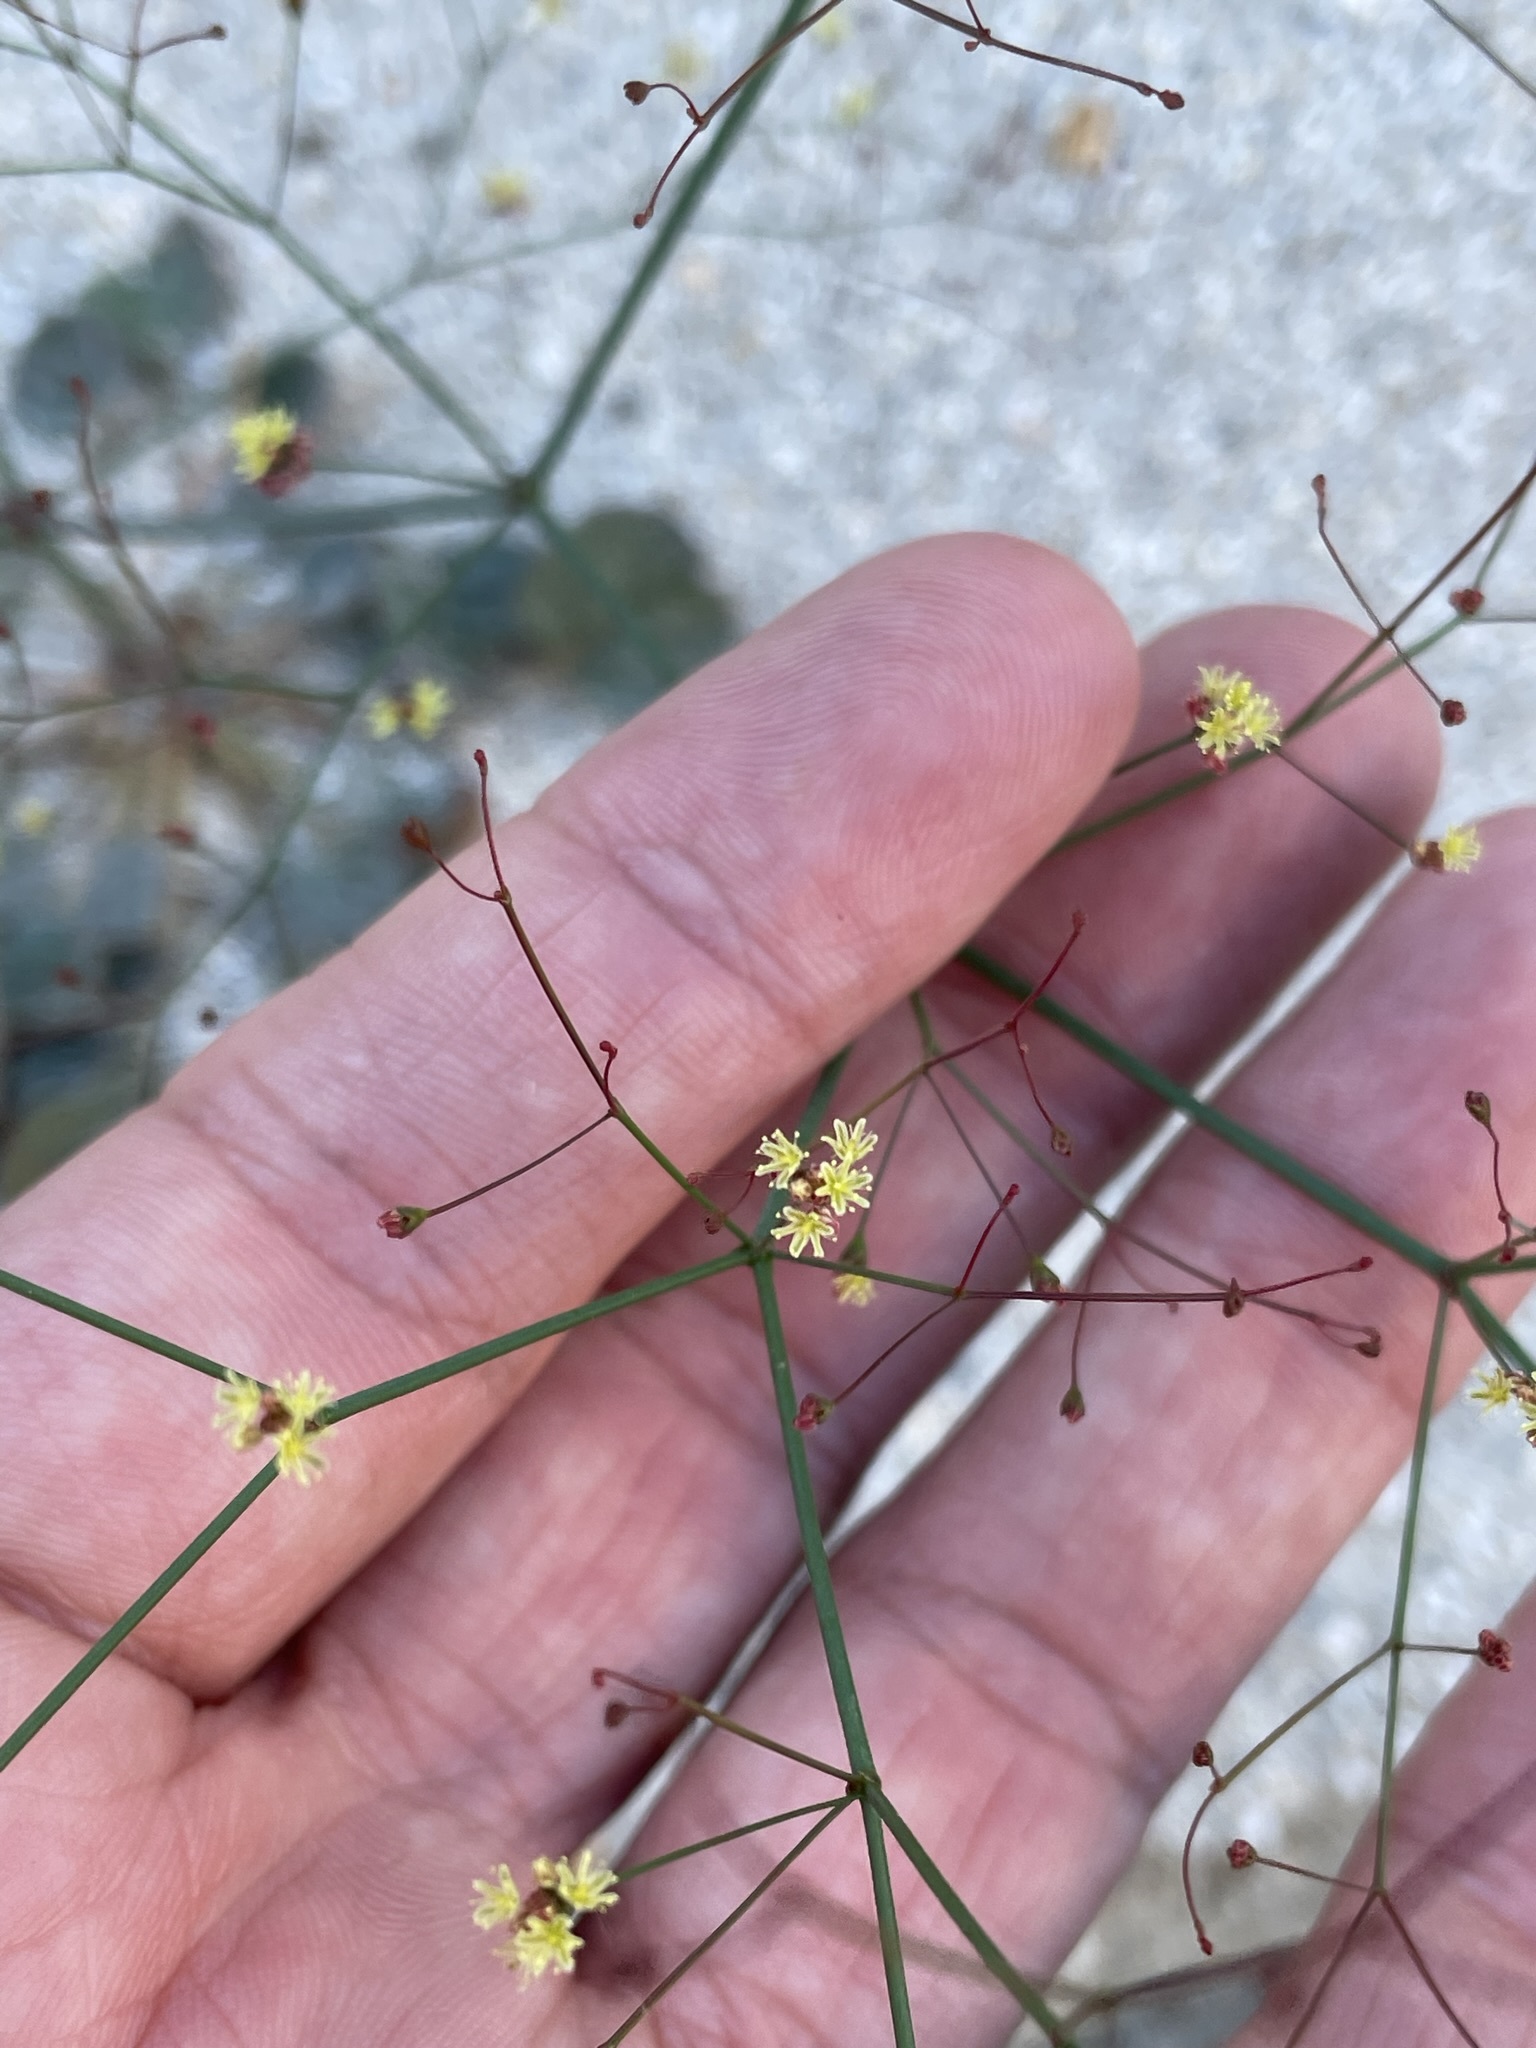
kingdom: Plantae
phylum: Tracheophyta
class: Magnoliopsida
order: Caryophyllales
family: Polygonaceae
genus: Eriogonum
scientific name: Eriogonum thomasii
